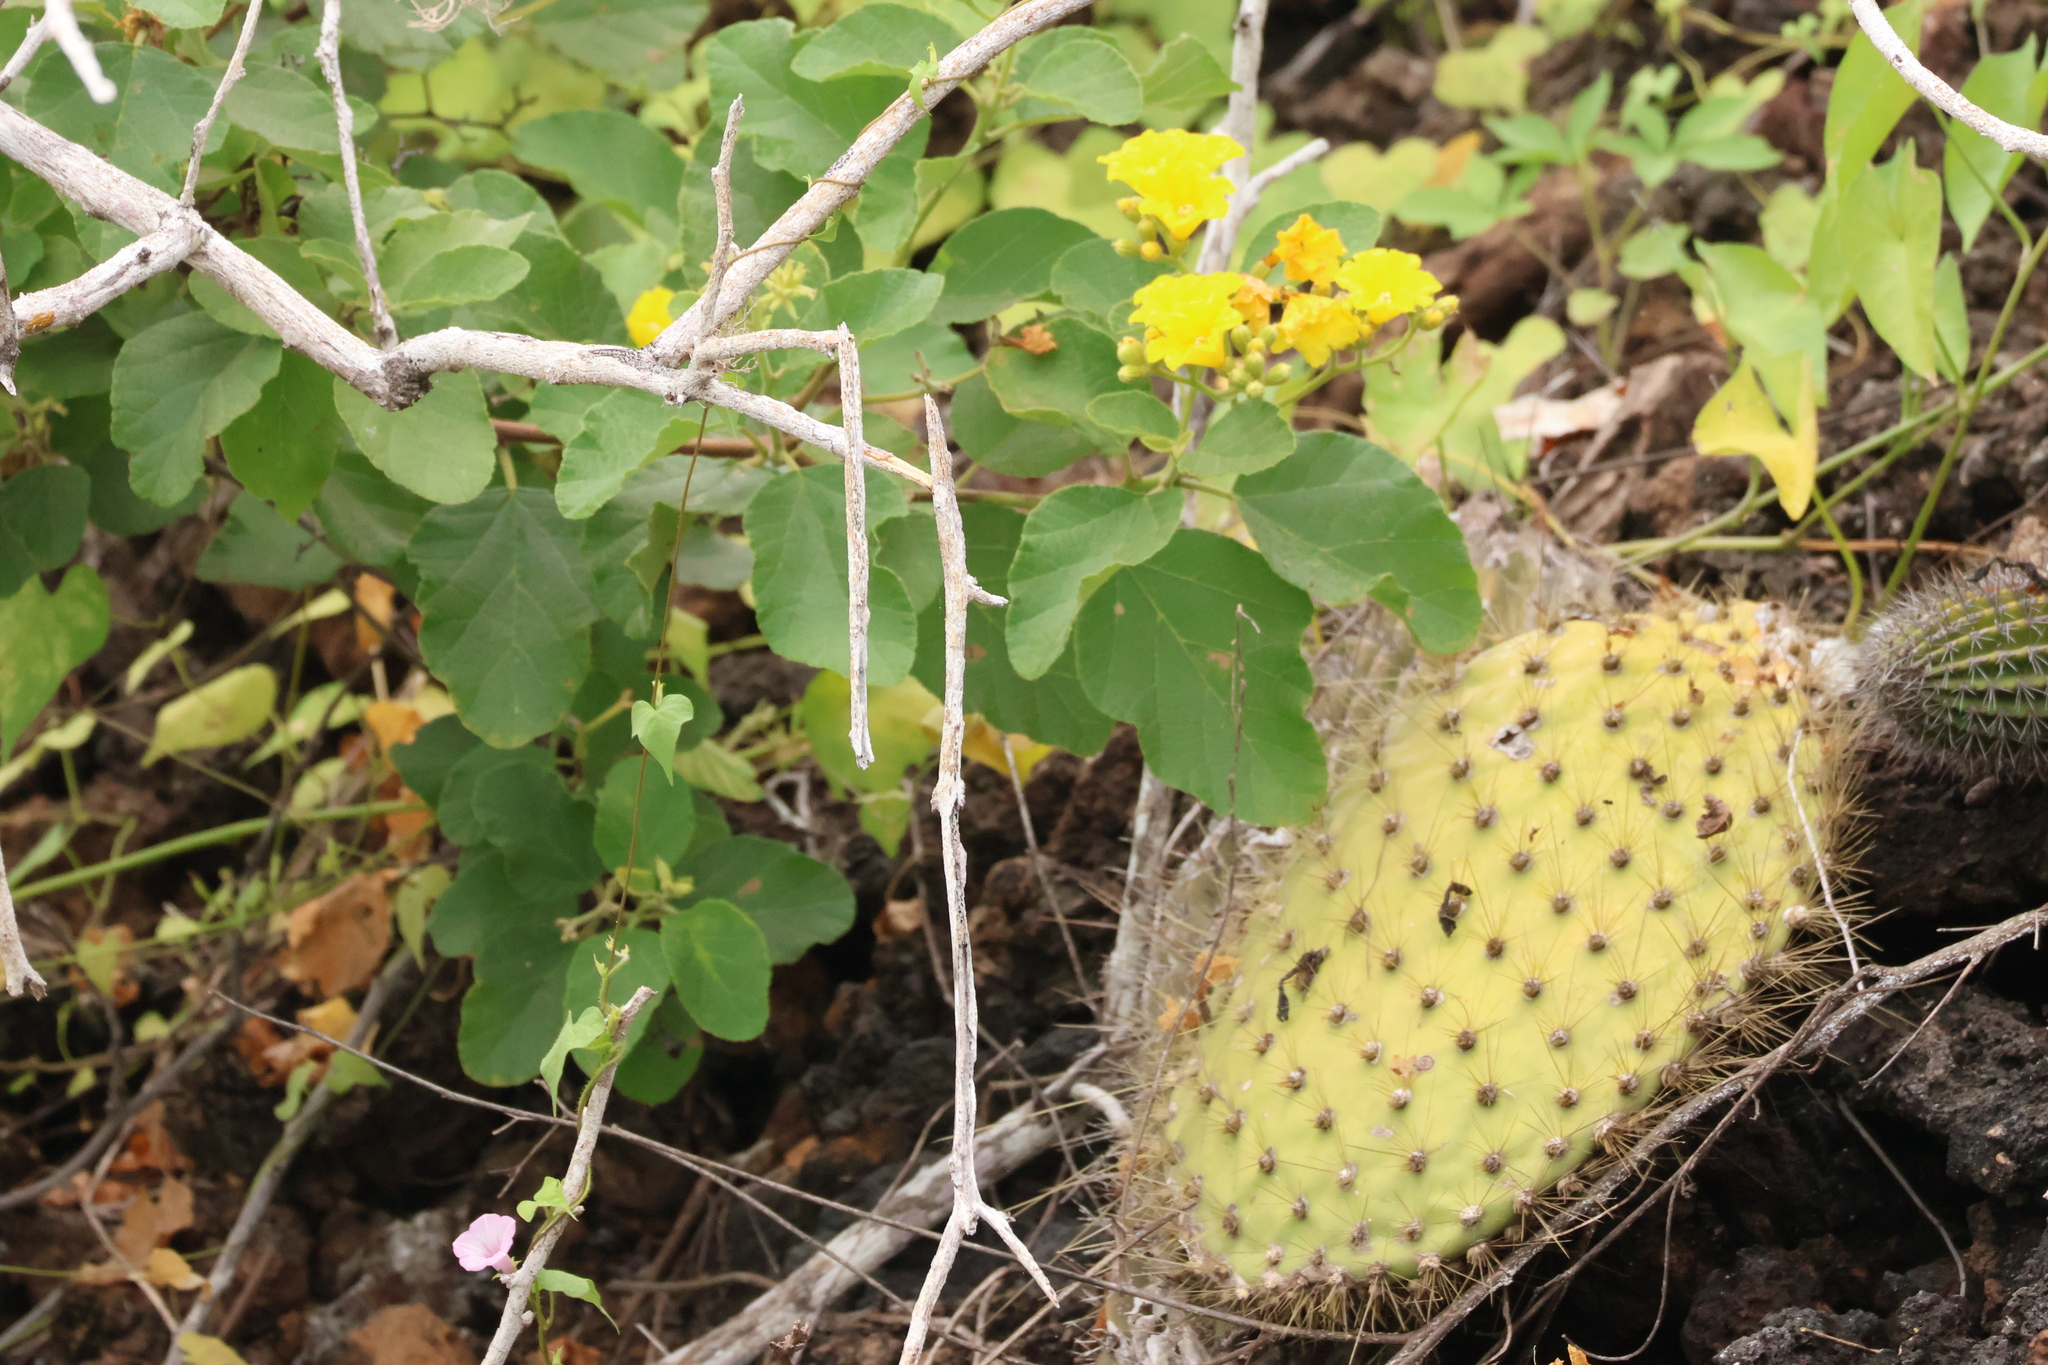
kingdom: Plantae
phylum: Tracheophyta
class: Magnoliopsida
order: Boraginales
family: Cordiaceae
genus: Cordia
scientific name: Cordia lutea
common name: Yellow geiger
